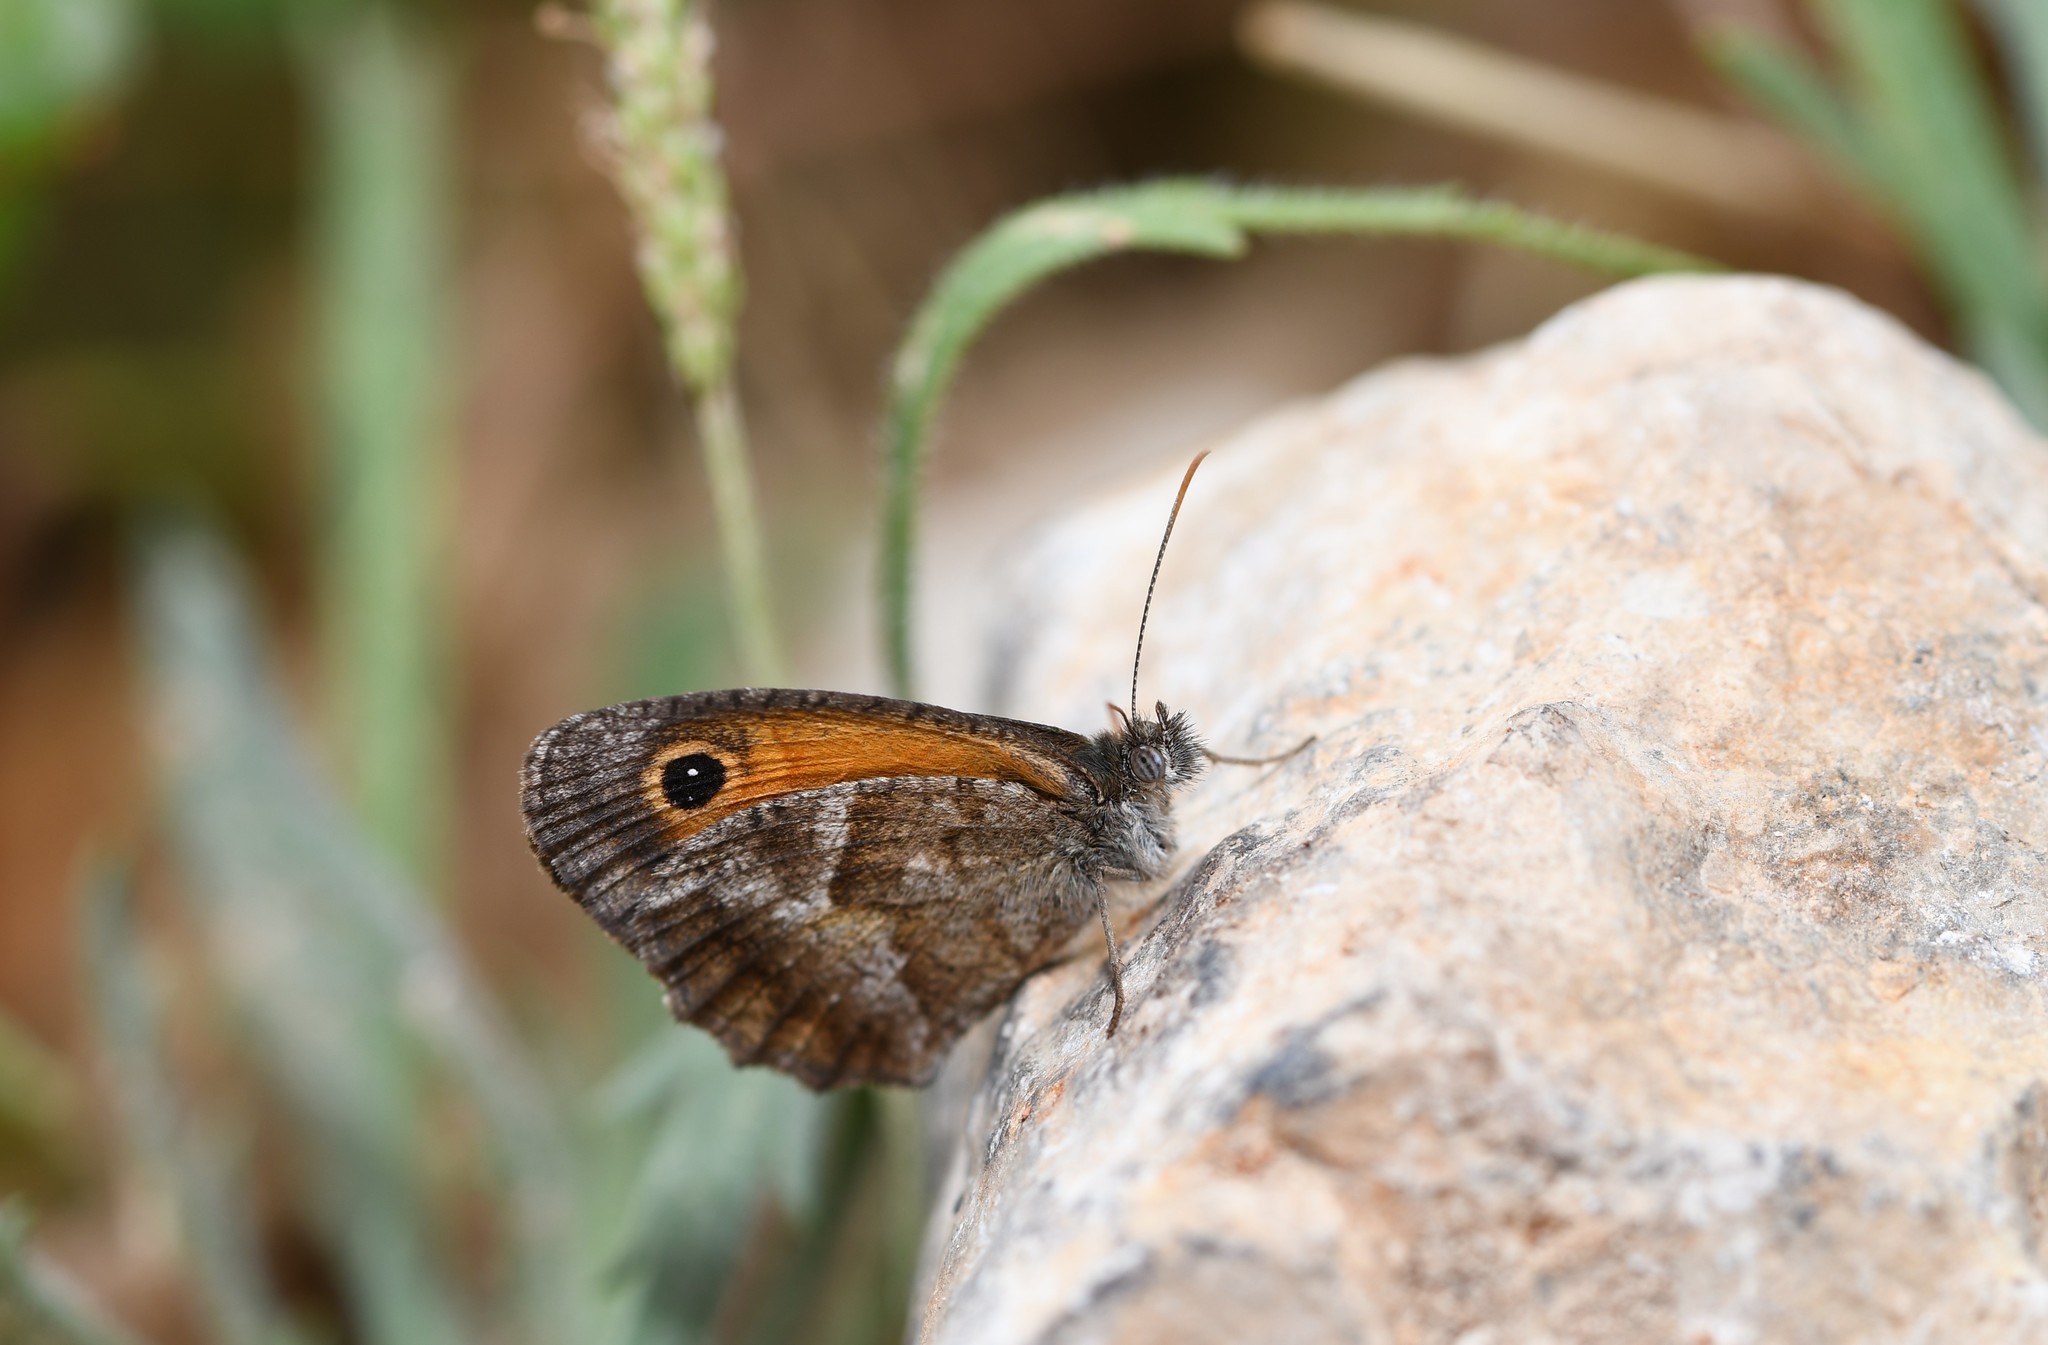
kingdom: Animalia
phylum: Arthropoda
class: Insecta
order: Lepidoptera
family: Nymphalidae
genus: Pyronia
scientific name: Pyronia cecilia
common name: Southern gatekeeper
